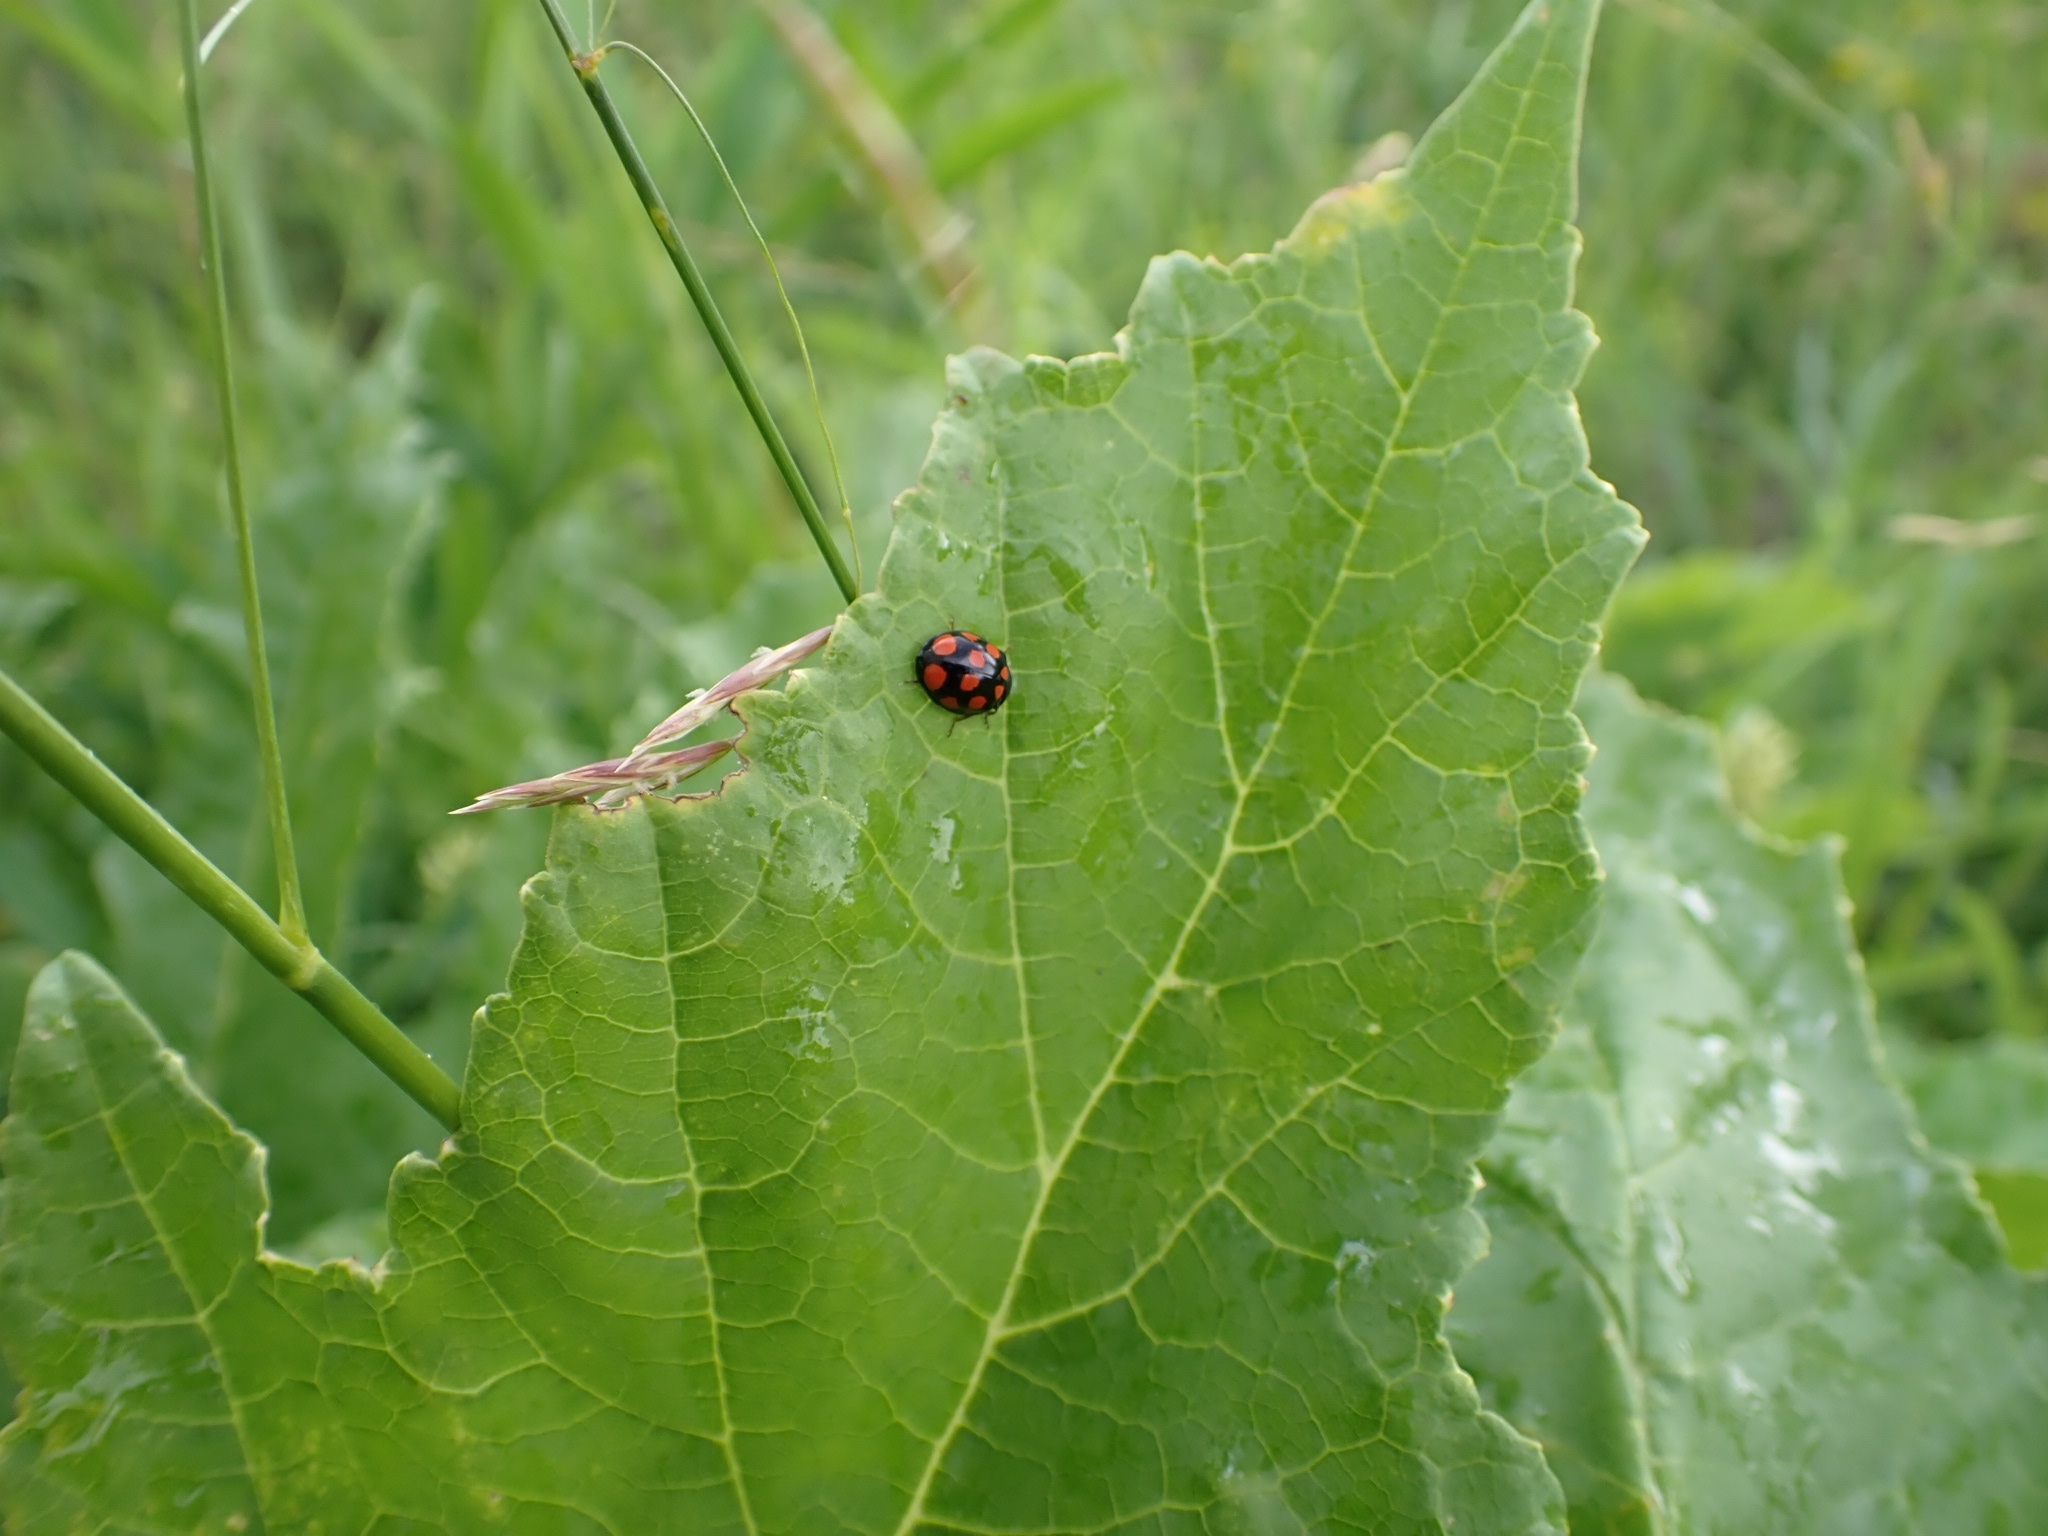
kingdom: Animalia
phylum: Arthropoda
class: Insecta
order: Coleoptera
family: Coccinellidae
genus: Harmonia
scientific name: Harmonia axyridis
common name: Harlequin ladybird
